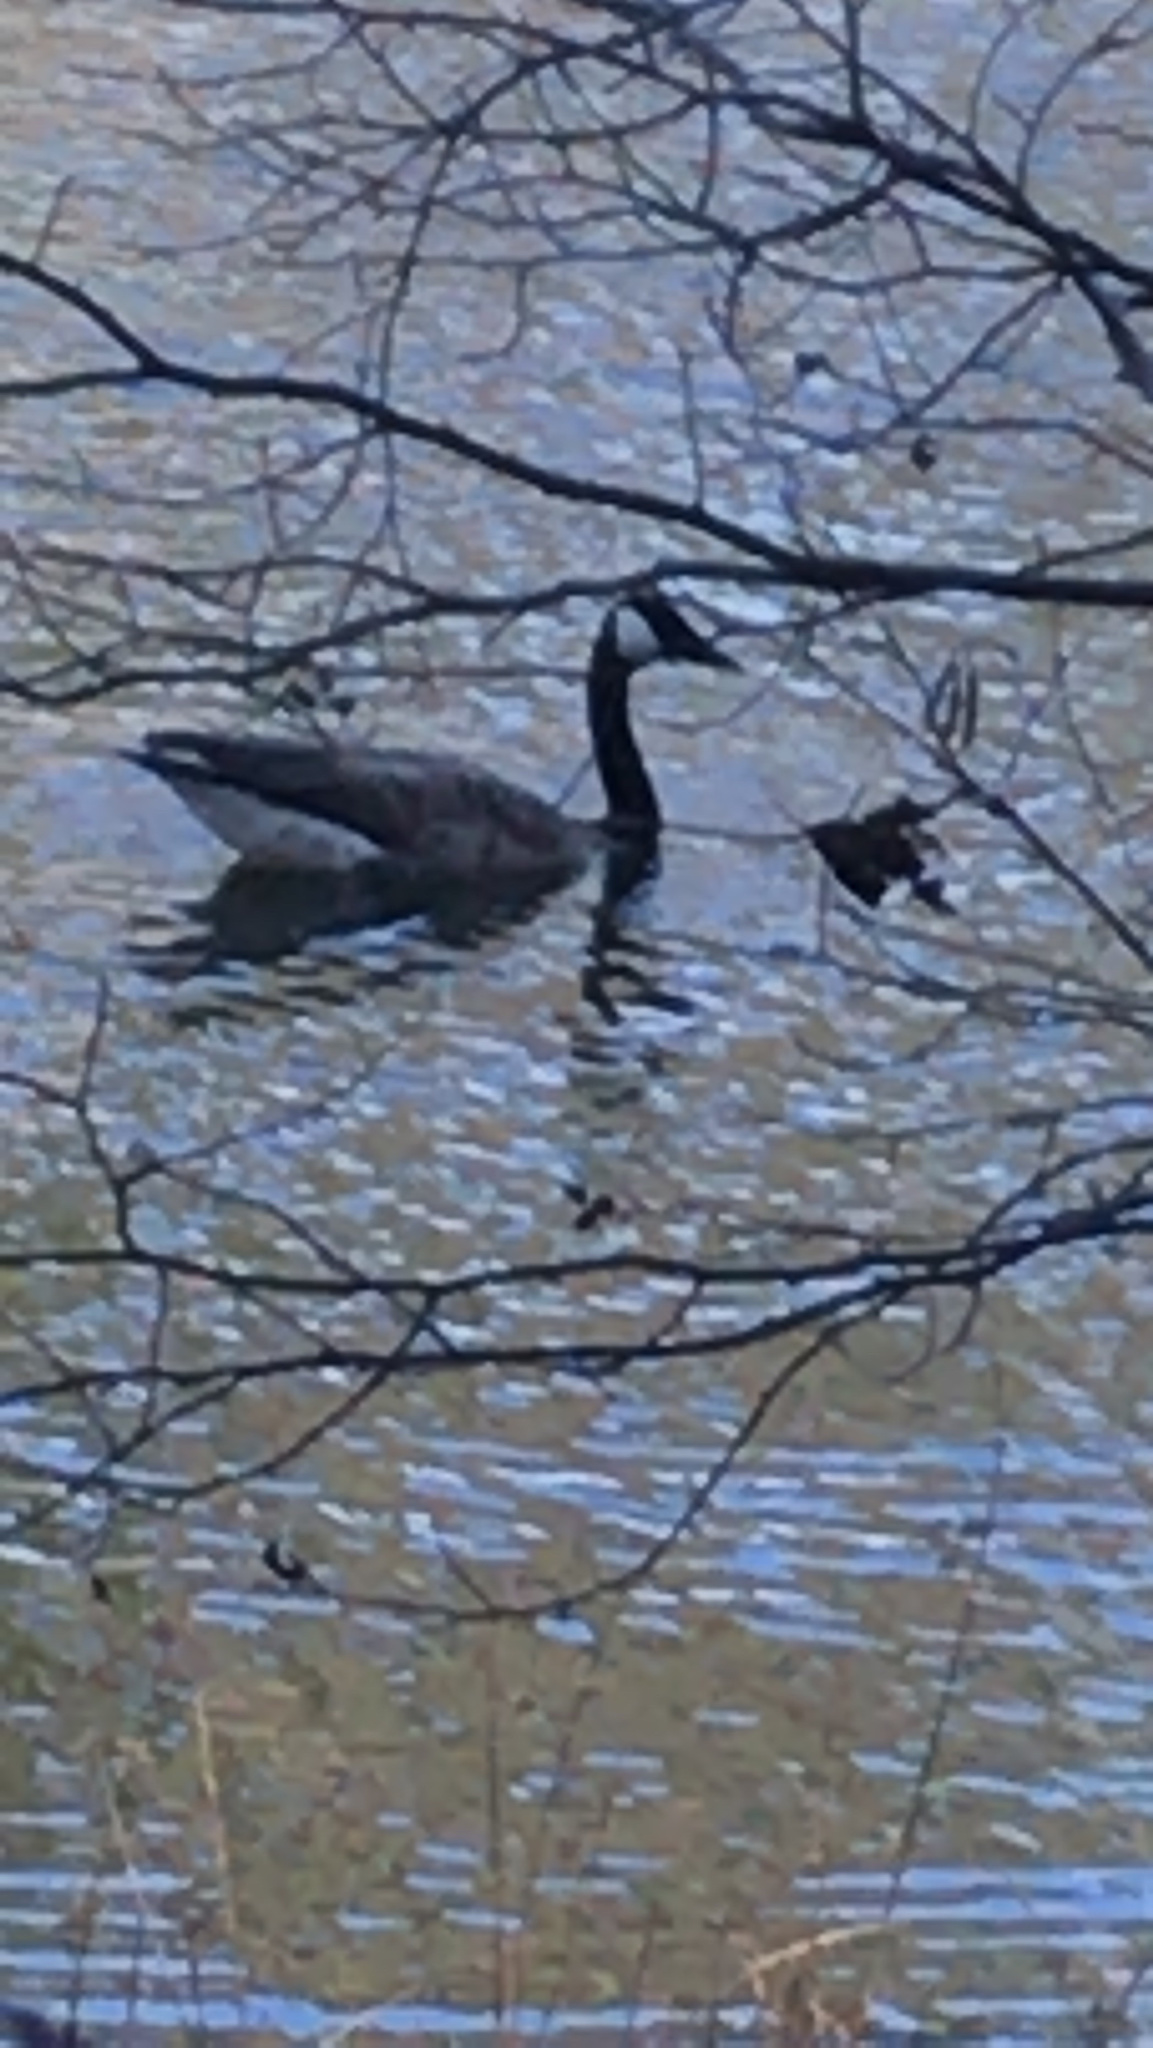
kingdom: Animalia
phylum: Chordata
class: Aves
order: Anseriformes
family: Anatidae
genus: Branta
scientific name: Branta canadensis
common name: Canada goose
